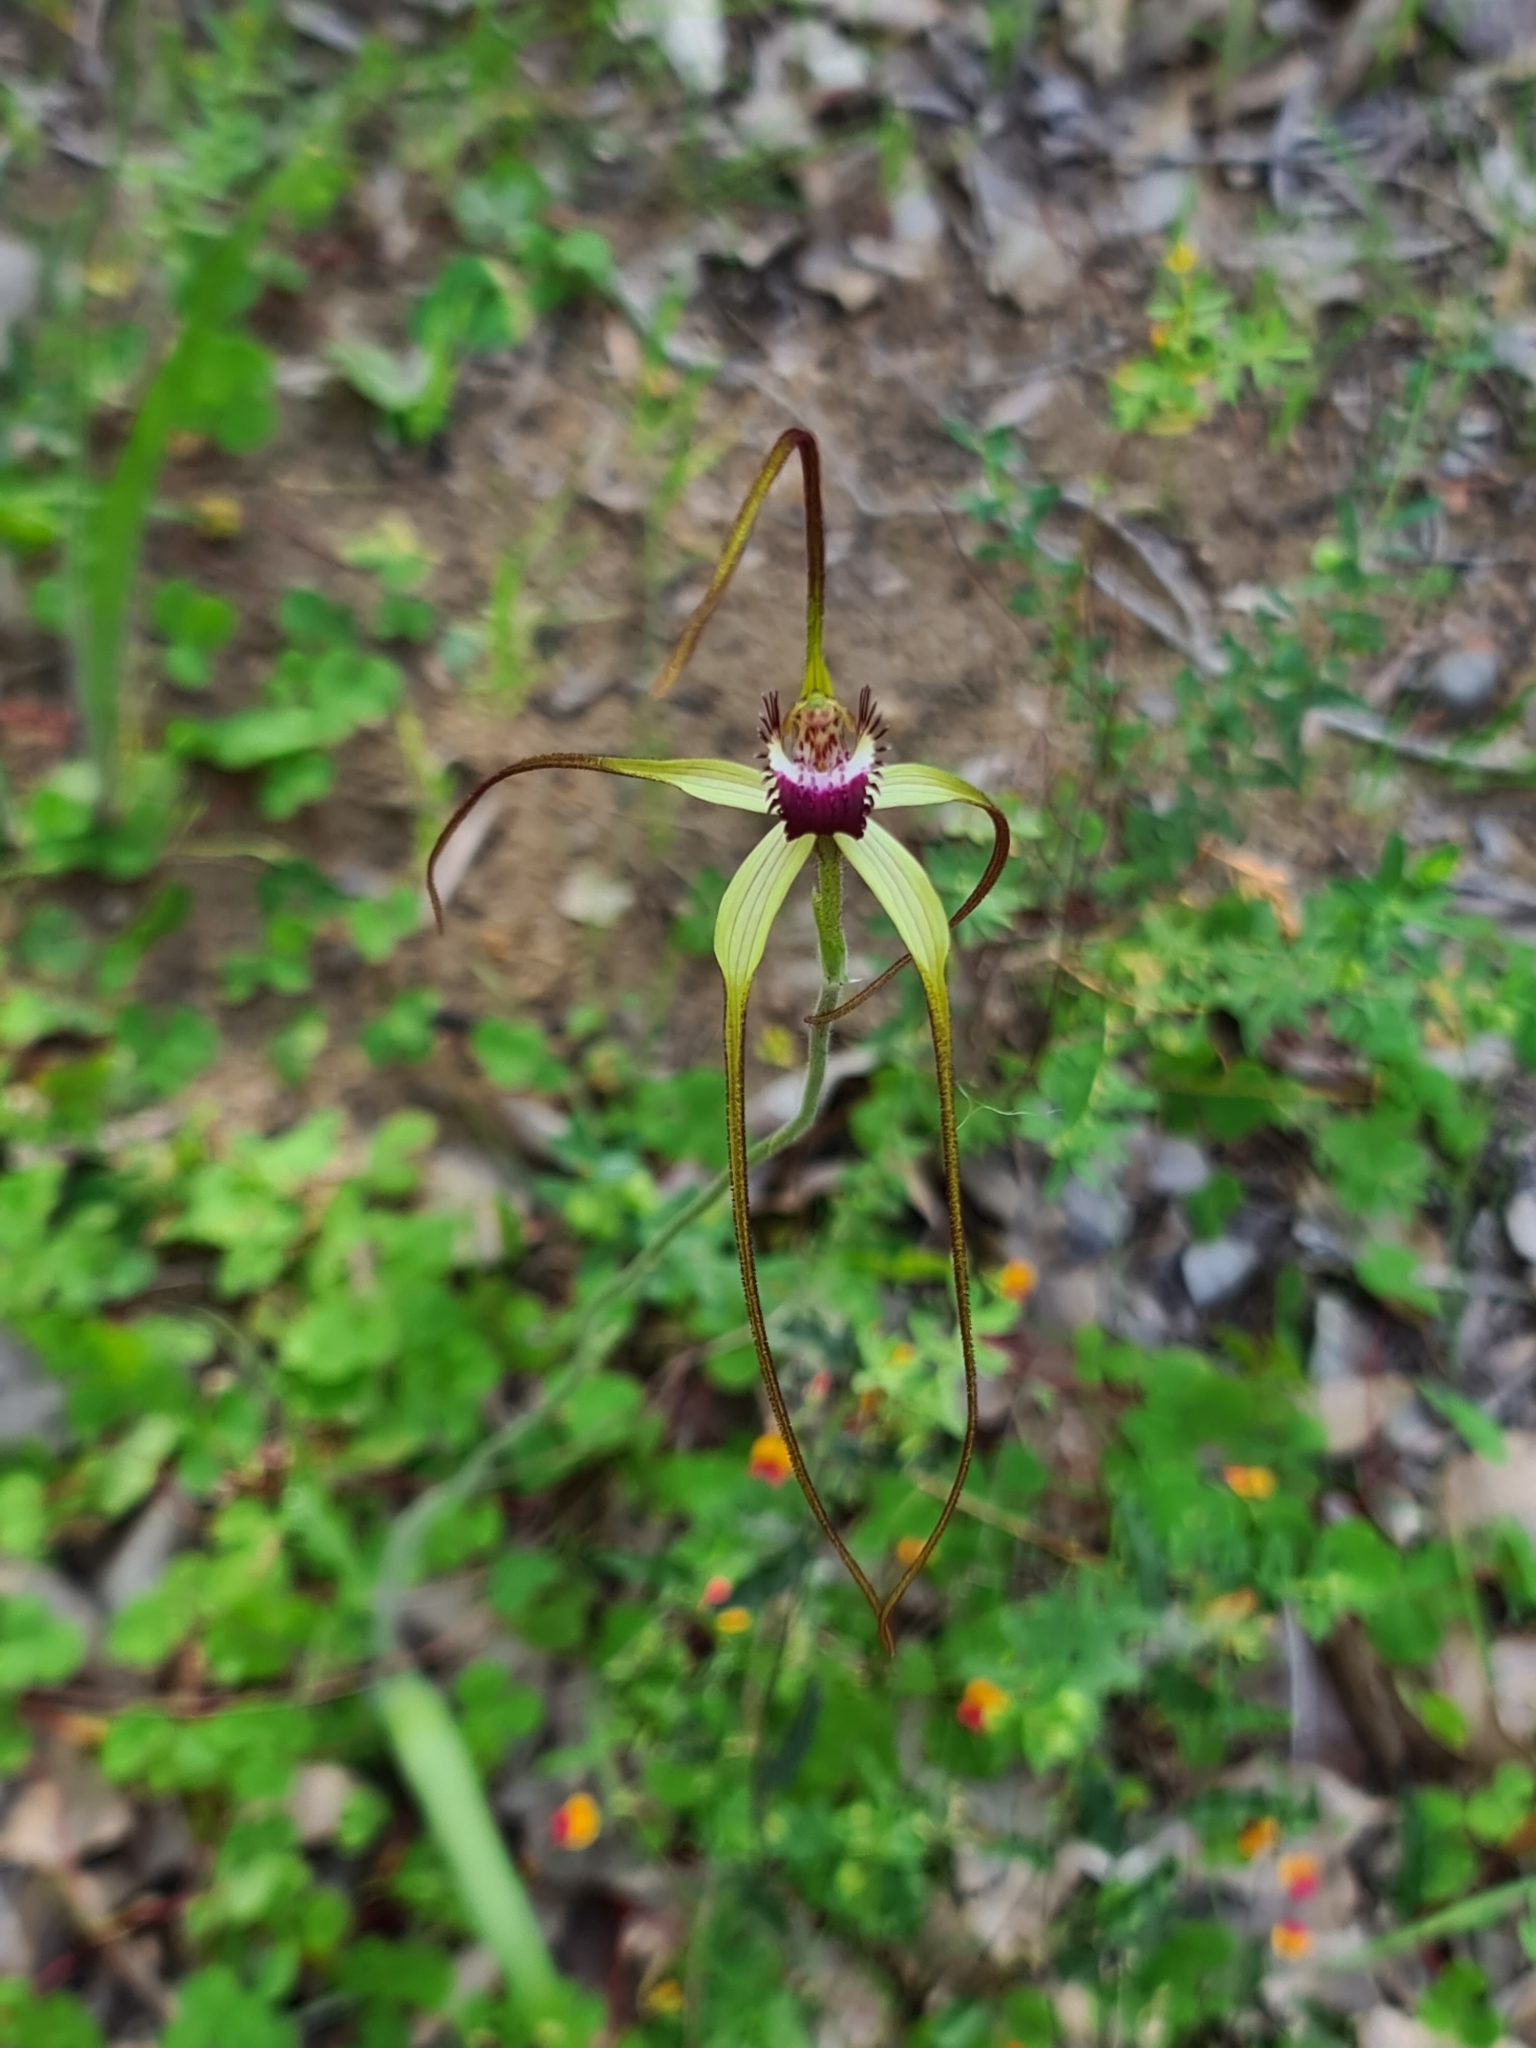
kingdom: Plantae
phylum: Tracheophyta
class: Liliopsida
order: Asparagales
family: Orchidaceae
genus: Caladenia
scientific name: Caladenia excelsa
